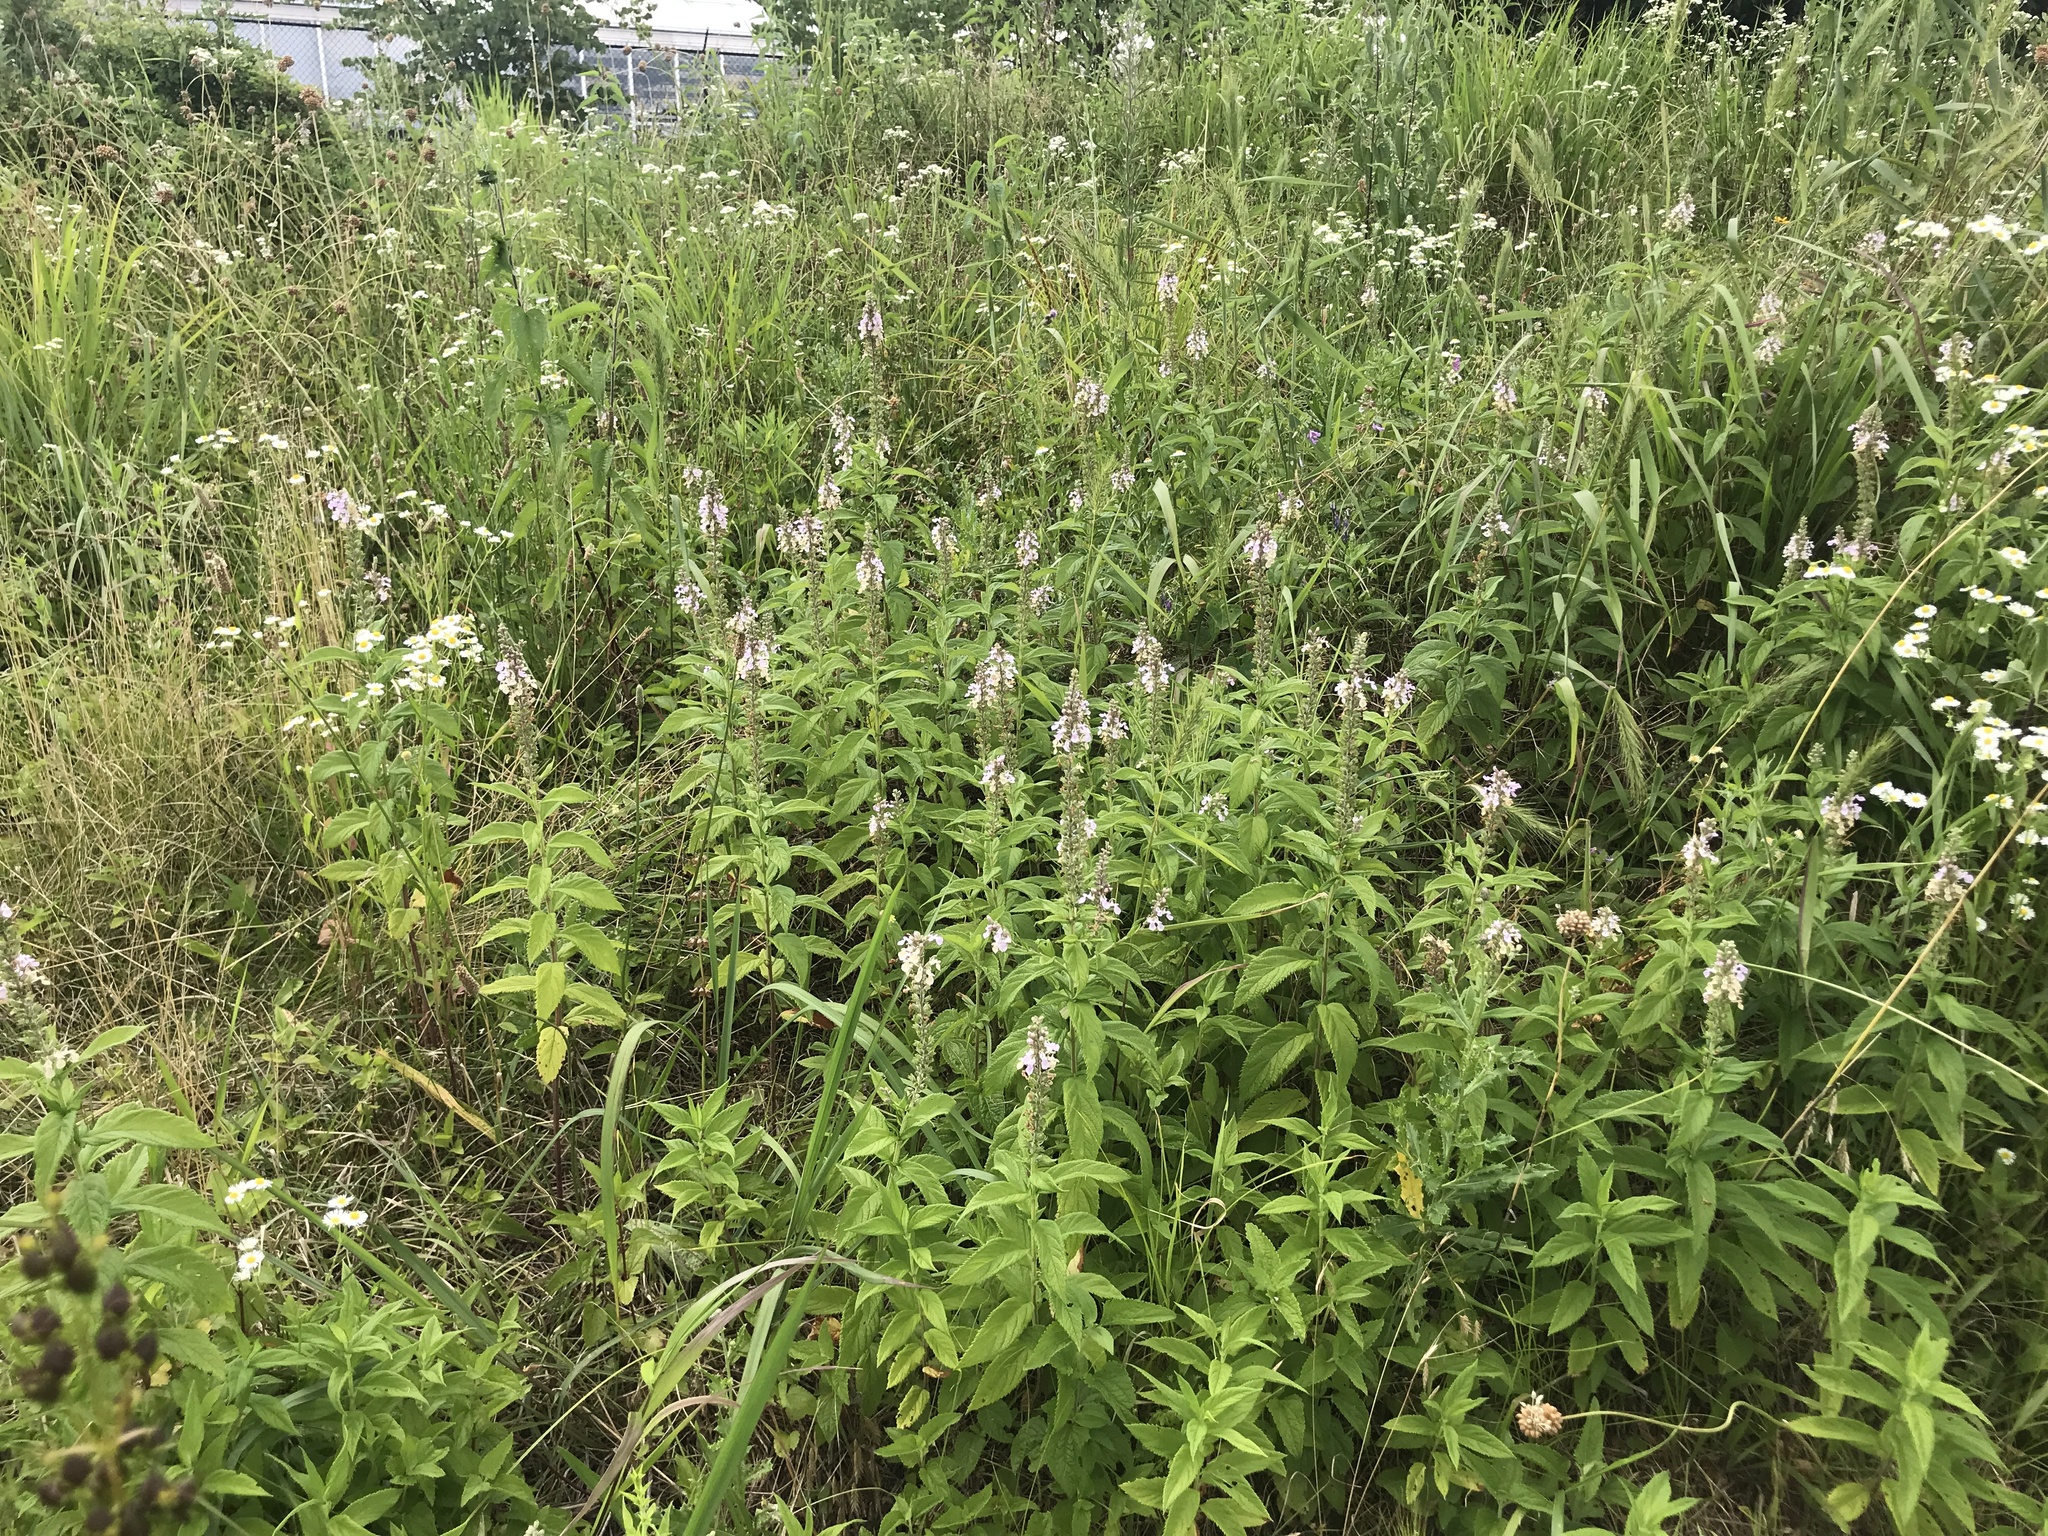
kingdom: Plantae
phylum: Tracheophyta
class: Magnoliopsida
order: Lamiales
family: Lamiaceae
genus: Teucrium
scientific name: Teucrium canadense
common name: American germander
